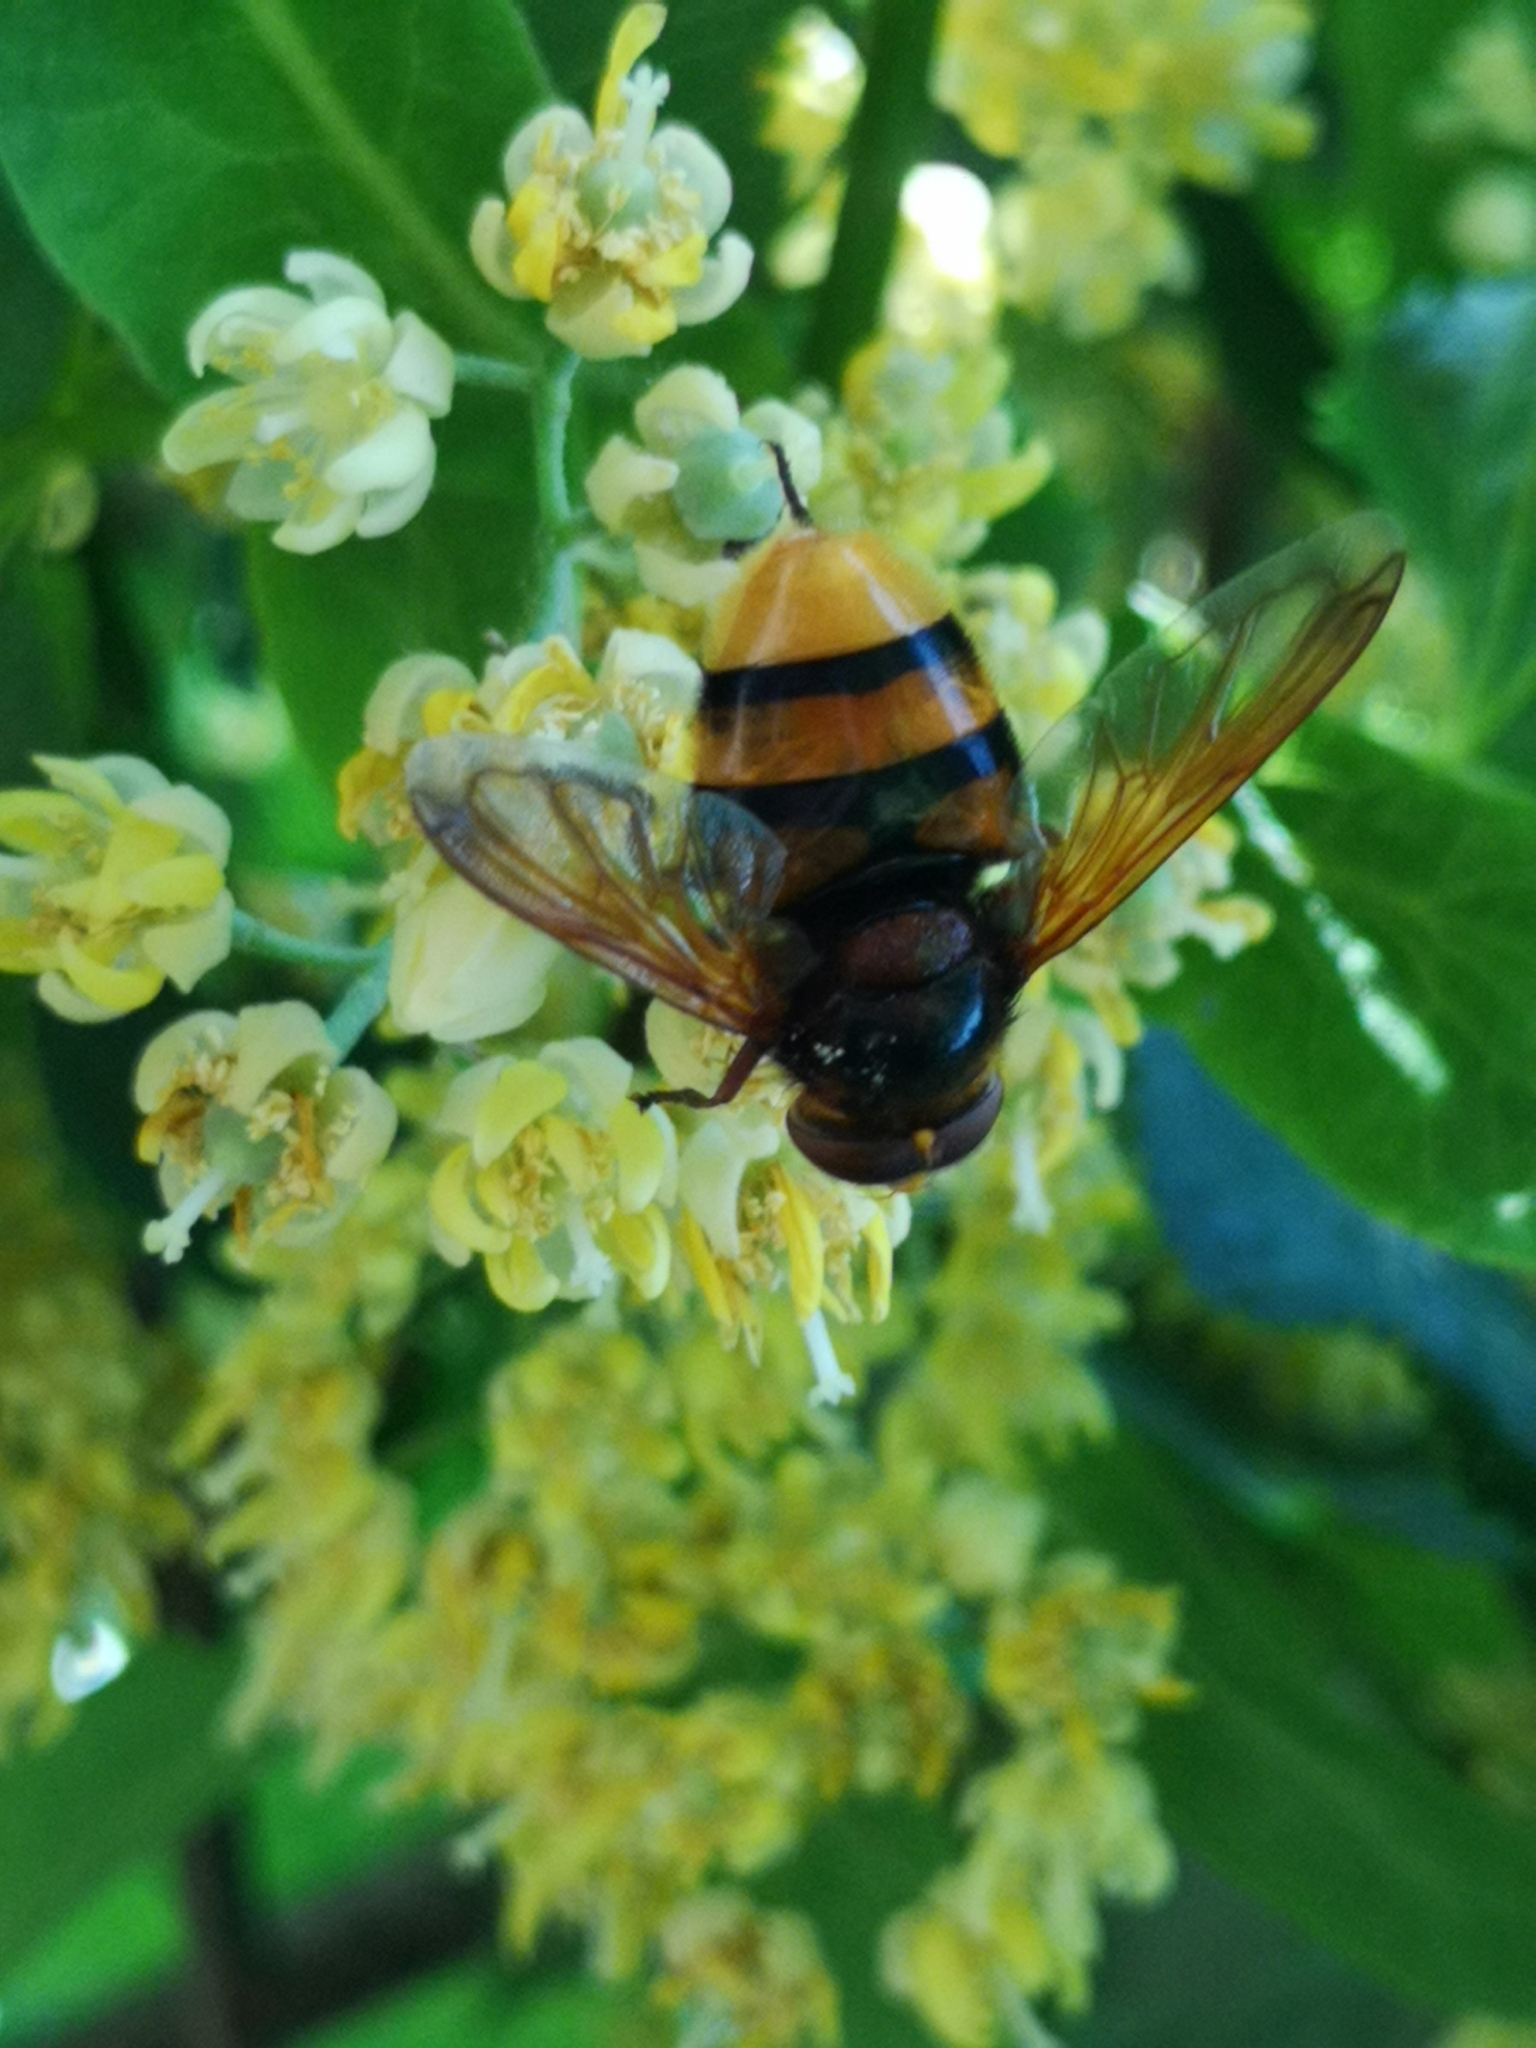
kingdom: Animalia
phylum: Arthropoda
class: Insecta
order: Diptera
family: Syrphidae
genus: Volucella
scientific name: Volucella zonaria
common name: Hornet hoverfly
